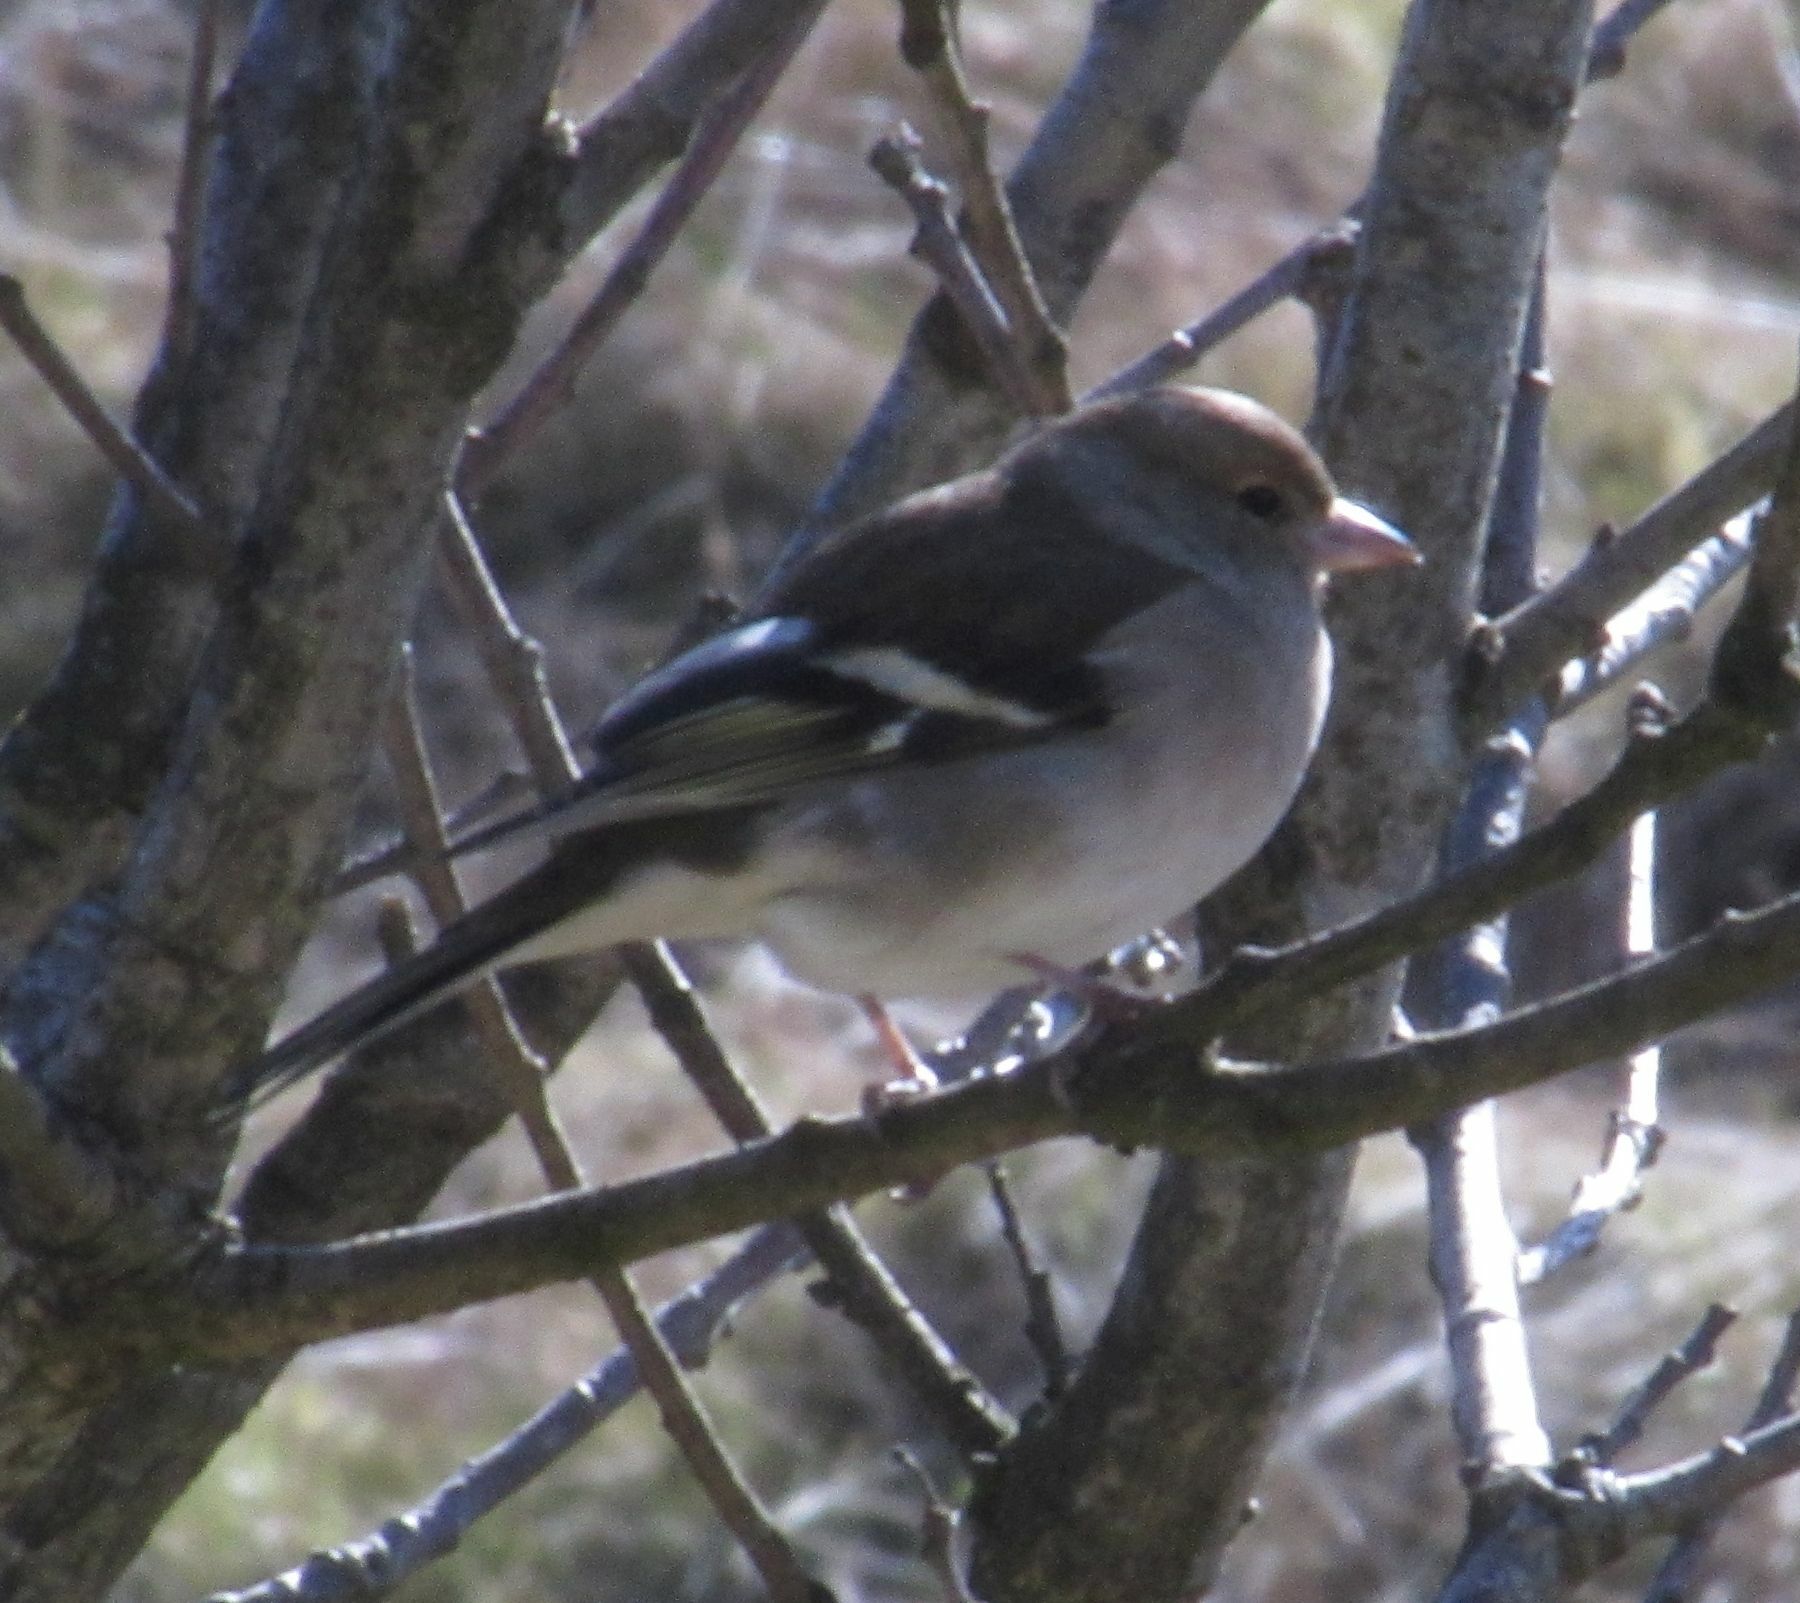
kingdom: Animalia
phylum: Chordata
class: Aves
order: Passeriformes
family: Fringillidae
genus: Fringilla
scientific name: Fringilla coelebs
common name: Common chaffinch
